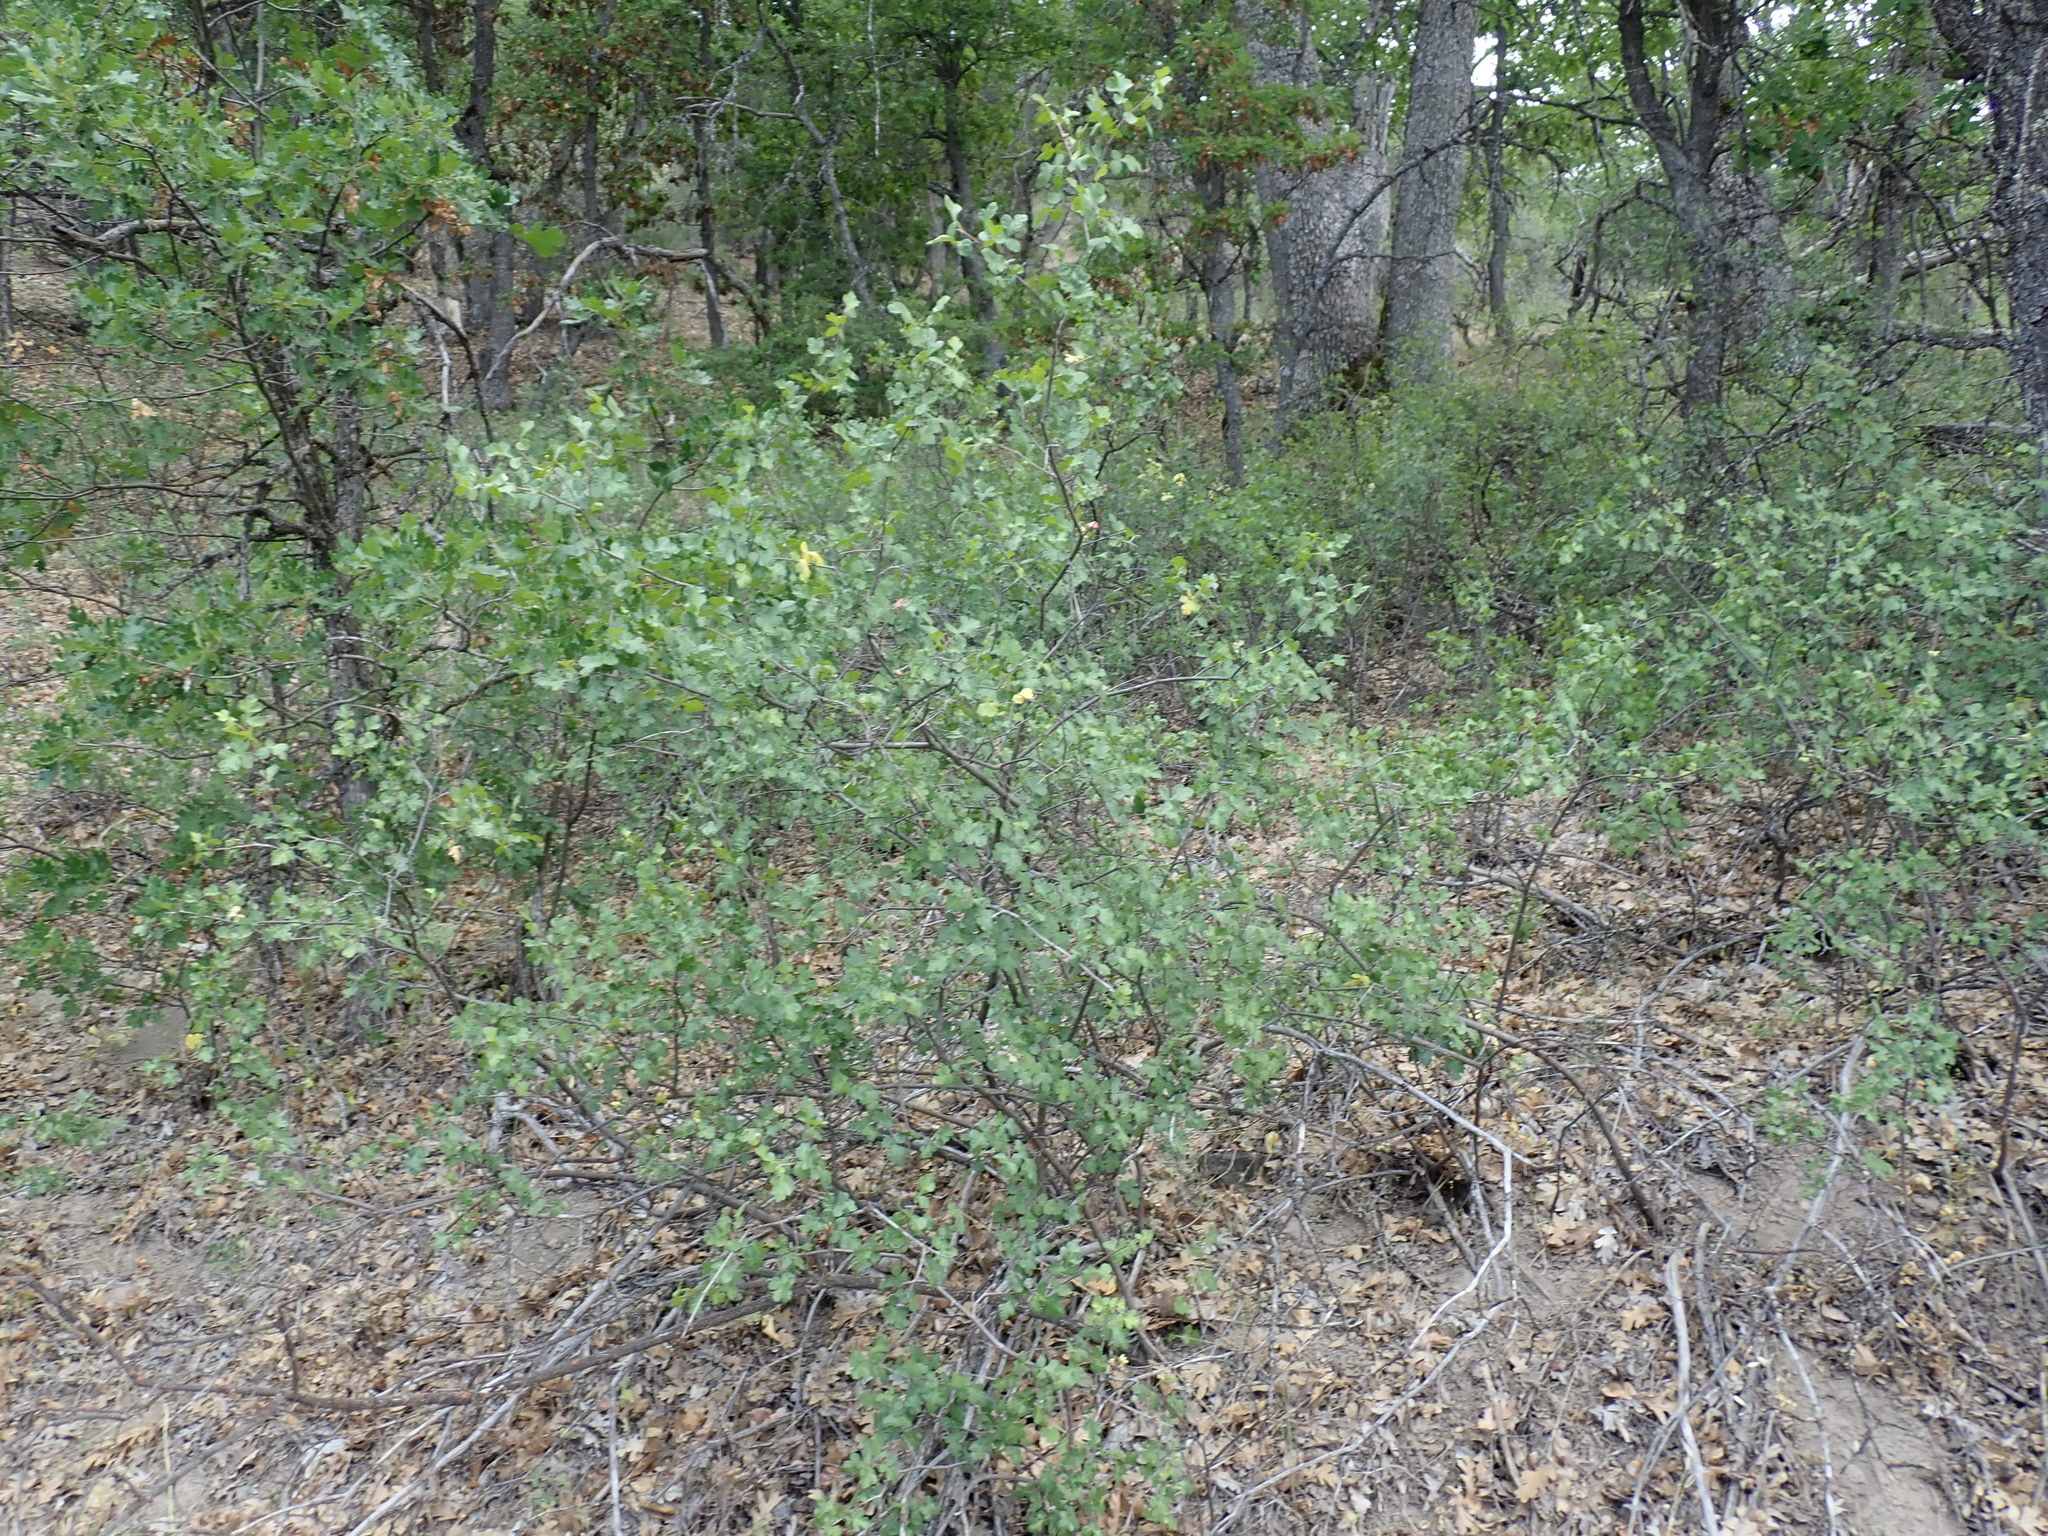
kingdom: Plantae
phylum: Tracheophyta
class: Magnoliopsida
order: Sapindales
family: Anacardiaceae
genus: Rhus
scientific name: Rhus aromatica
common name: Aromatic sumac
